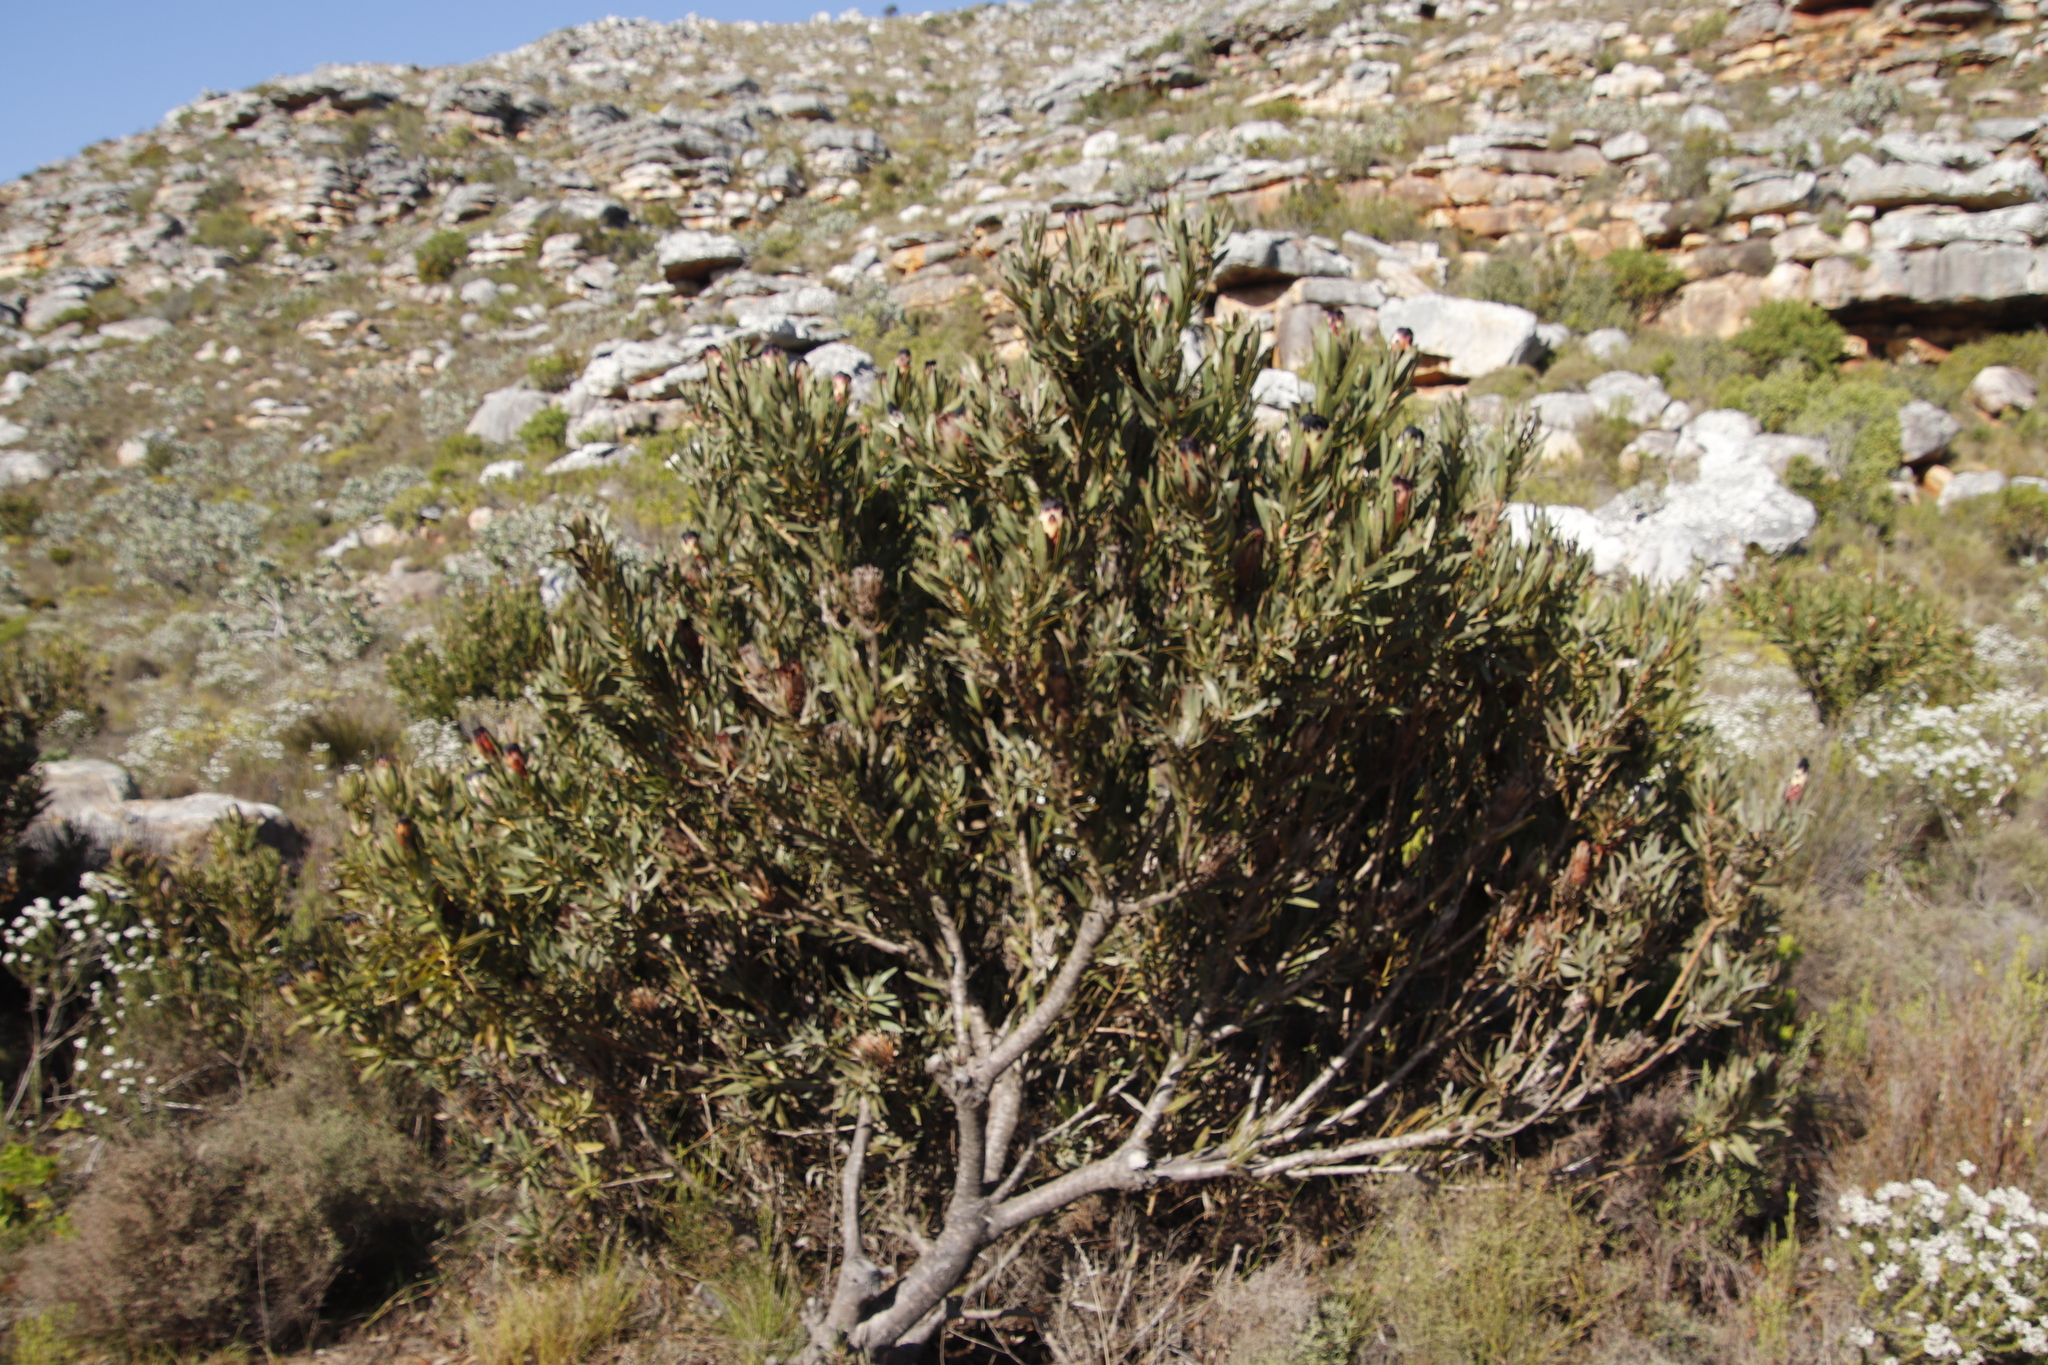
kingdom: Plantae
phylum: Tracheophyta
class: Magnoliopsida
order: Proteales
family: Proteaceae
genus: Protea
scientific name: Protea
